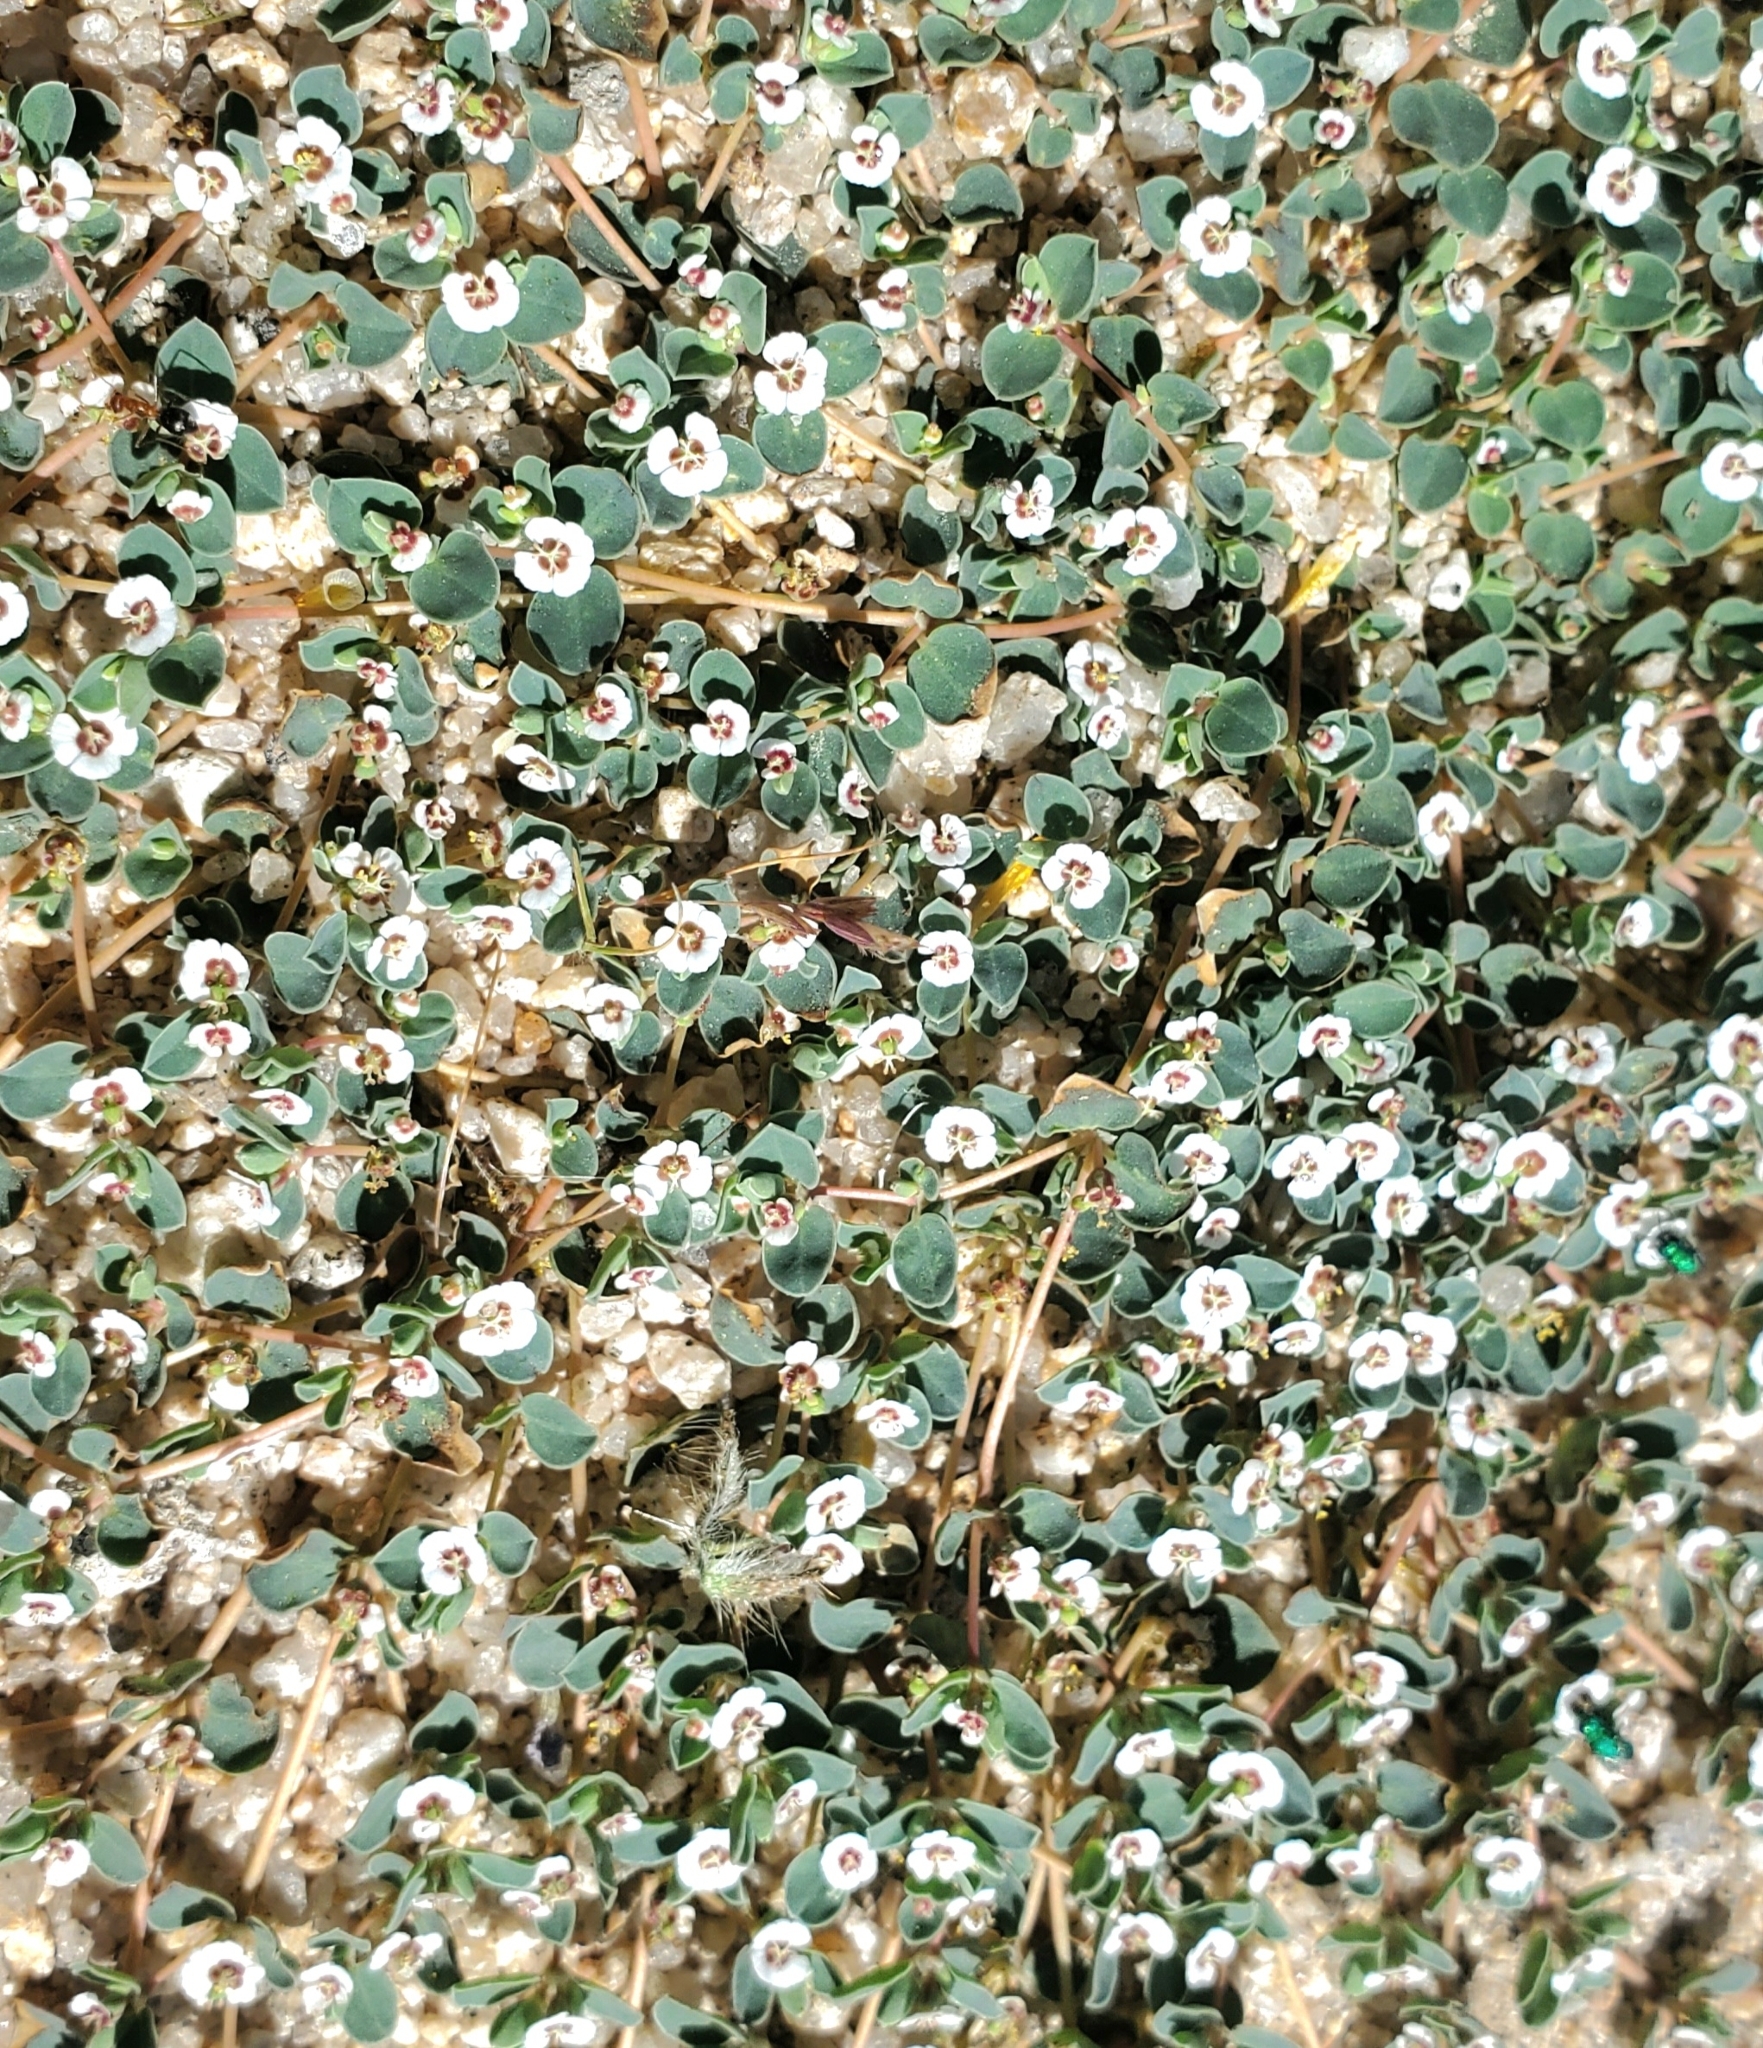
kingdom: Plantae
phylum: Tracheophyta
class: Magnoliopsida
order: Malpighiales
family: Euphorbiaceae
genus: Euphorbia
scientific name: Euphorbia albomarginata
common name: Whitemargin sandmat
